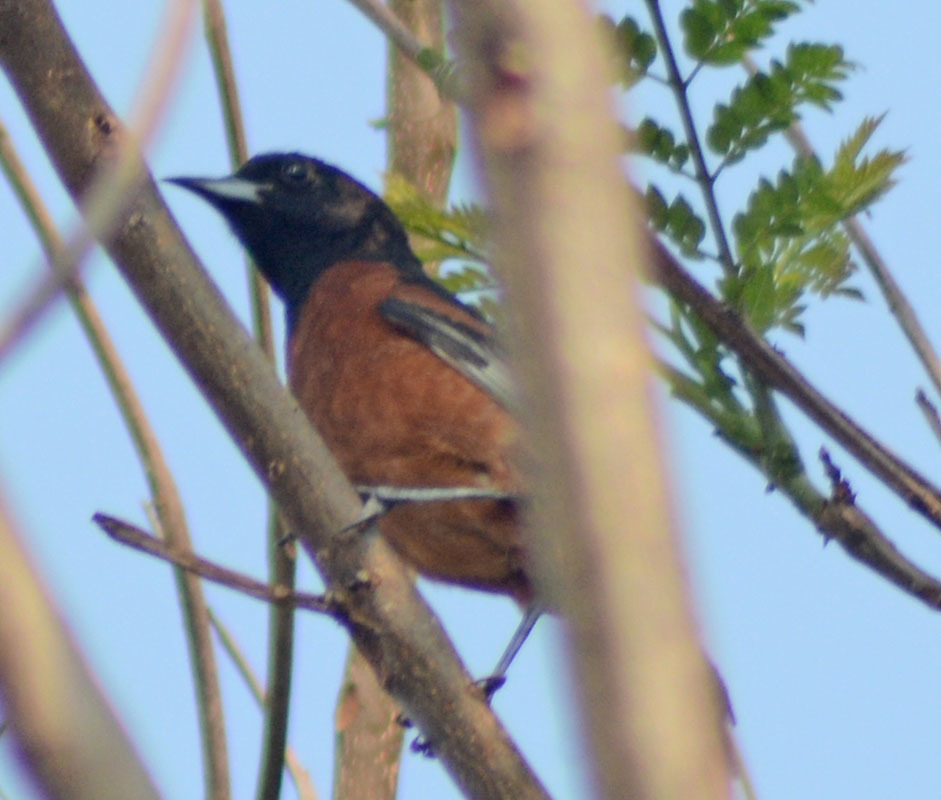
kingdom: Animalia
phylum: Chordata
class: Aves
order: Passeriformes
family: Icteridae
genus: Icterus
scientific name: Icterus spurius
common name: Orchard oriole
